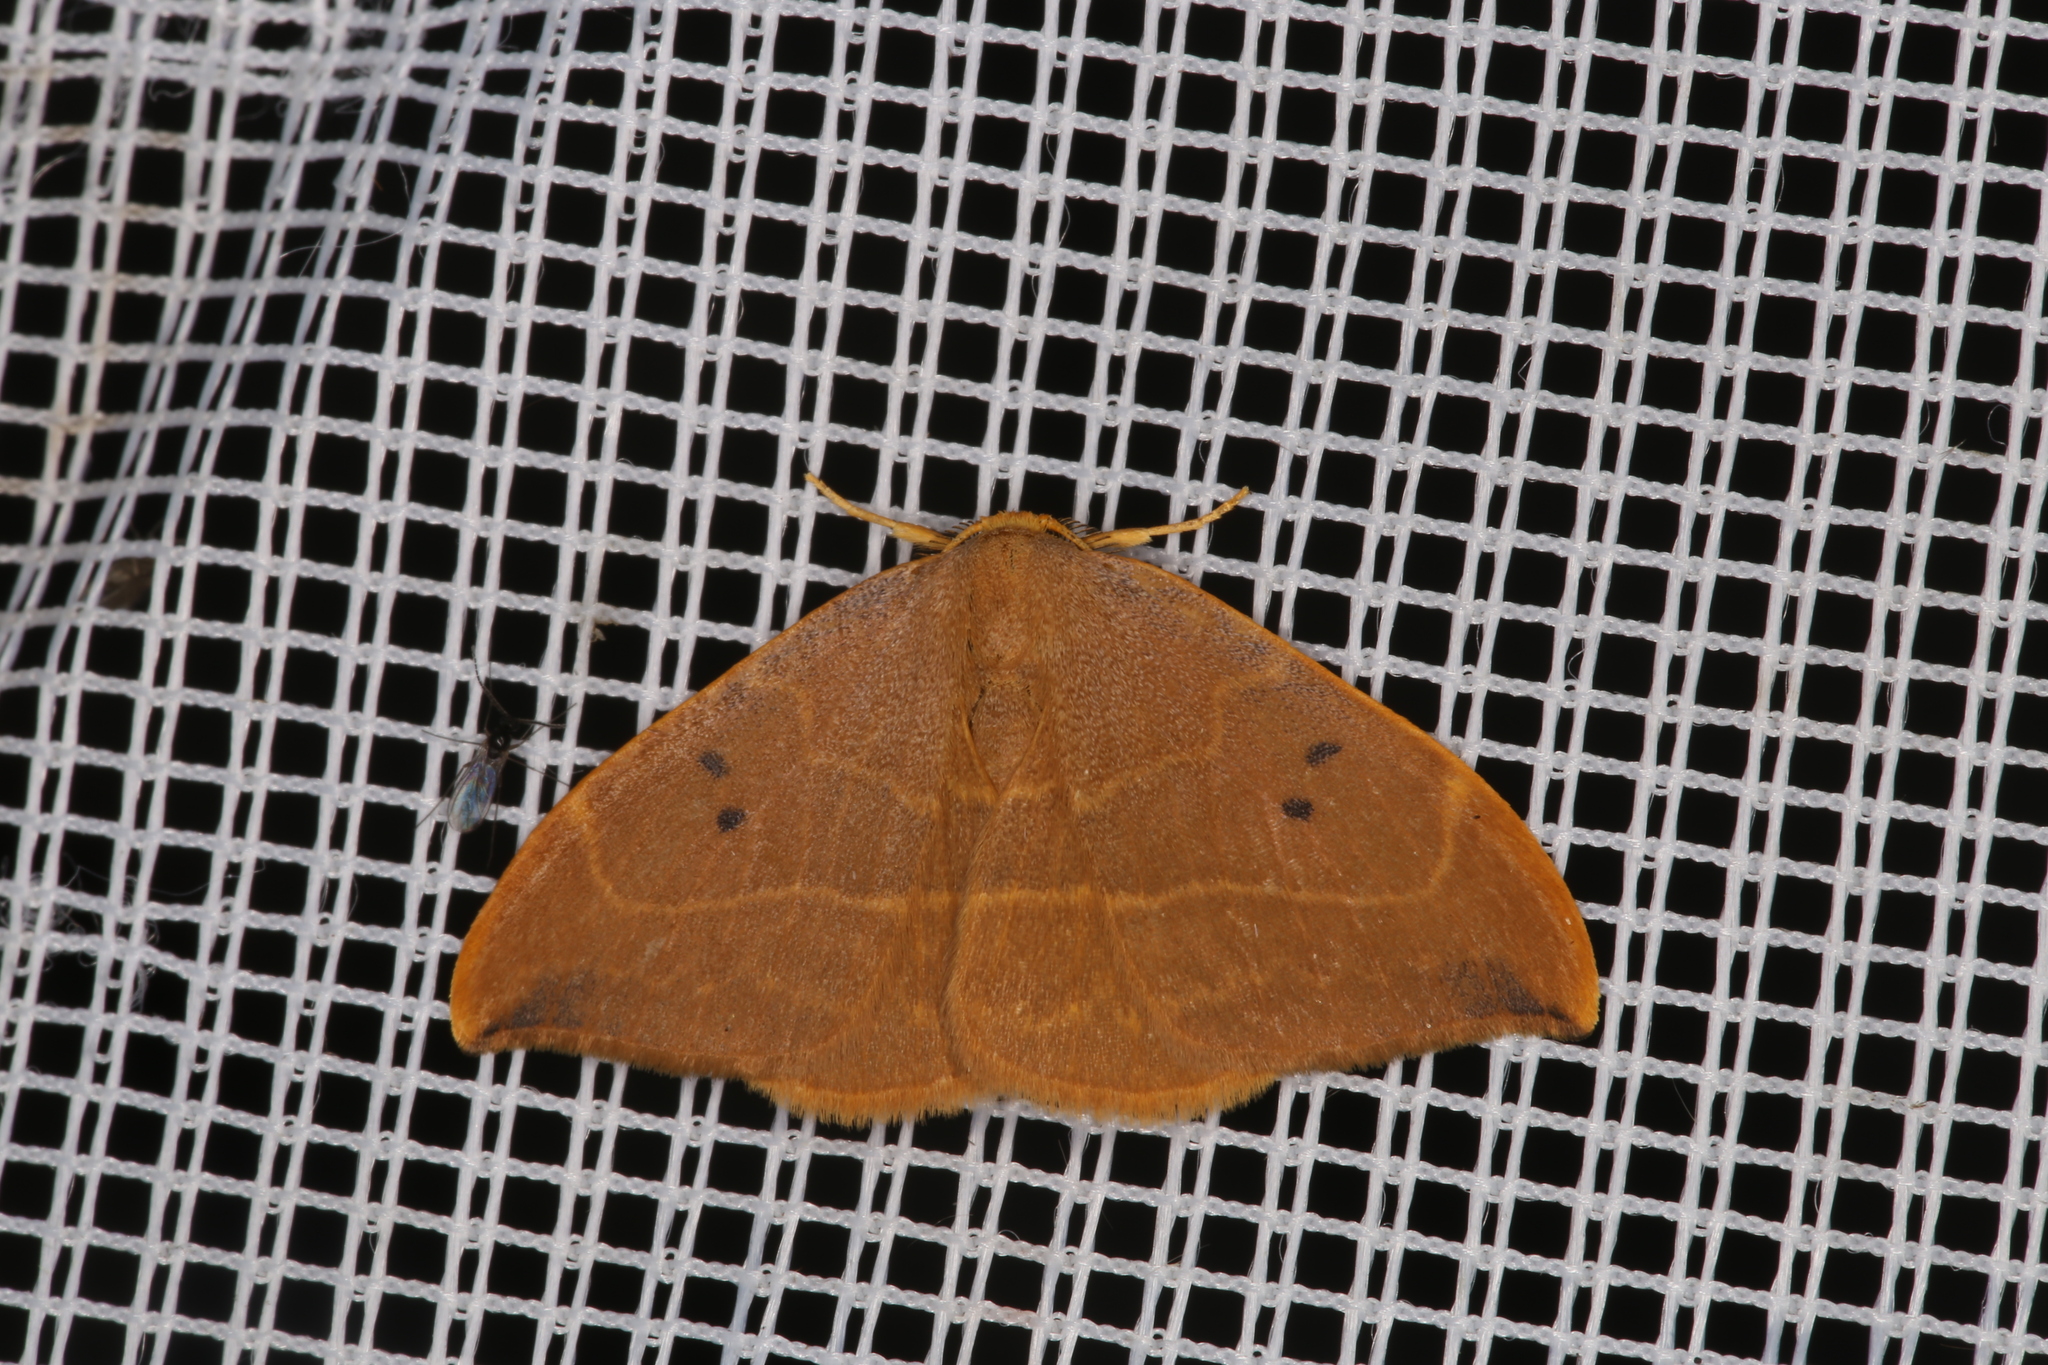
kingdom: Animalia
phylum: Arthropoda
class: Insecta
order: Lepidoptera
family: Drepanidae
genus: Watsonalla
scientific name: Watsonalla binaria
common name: Oak hook-tip
